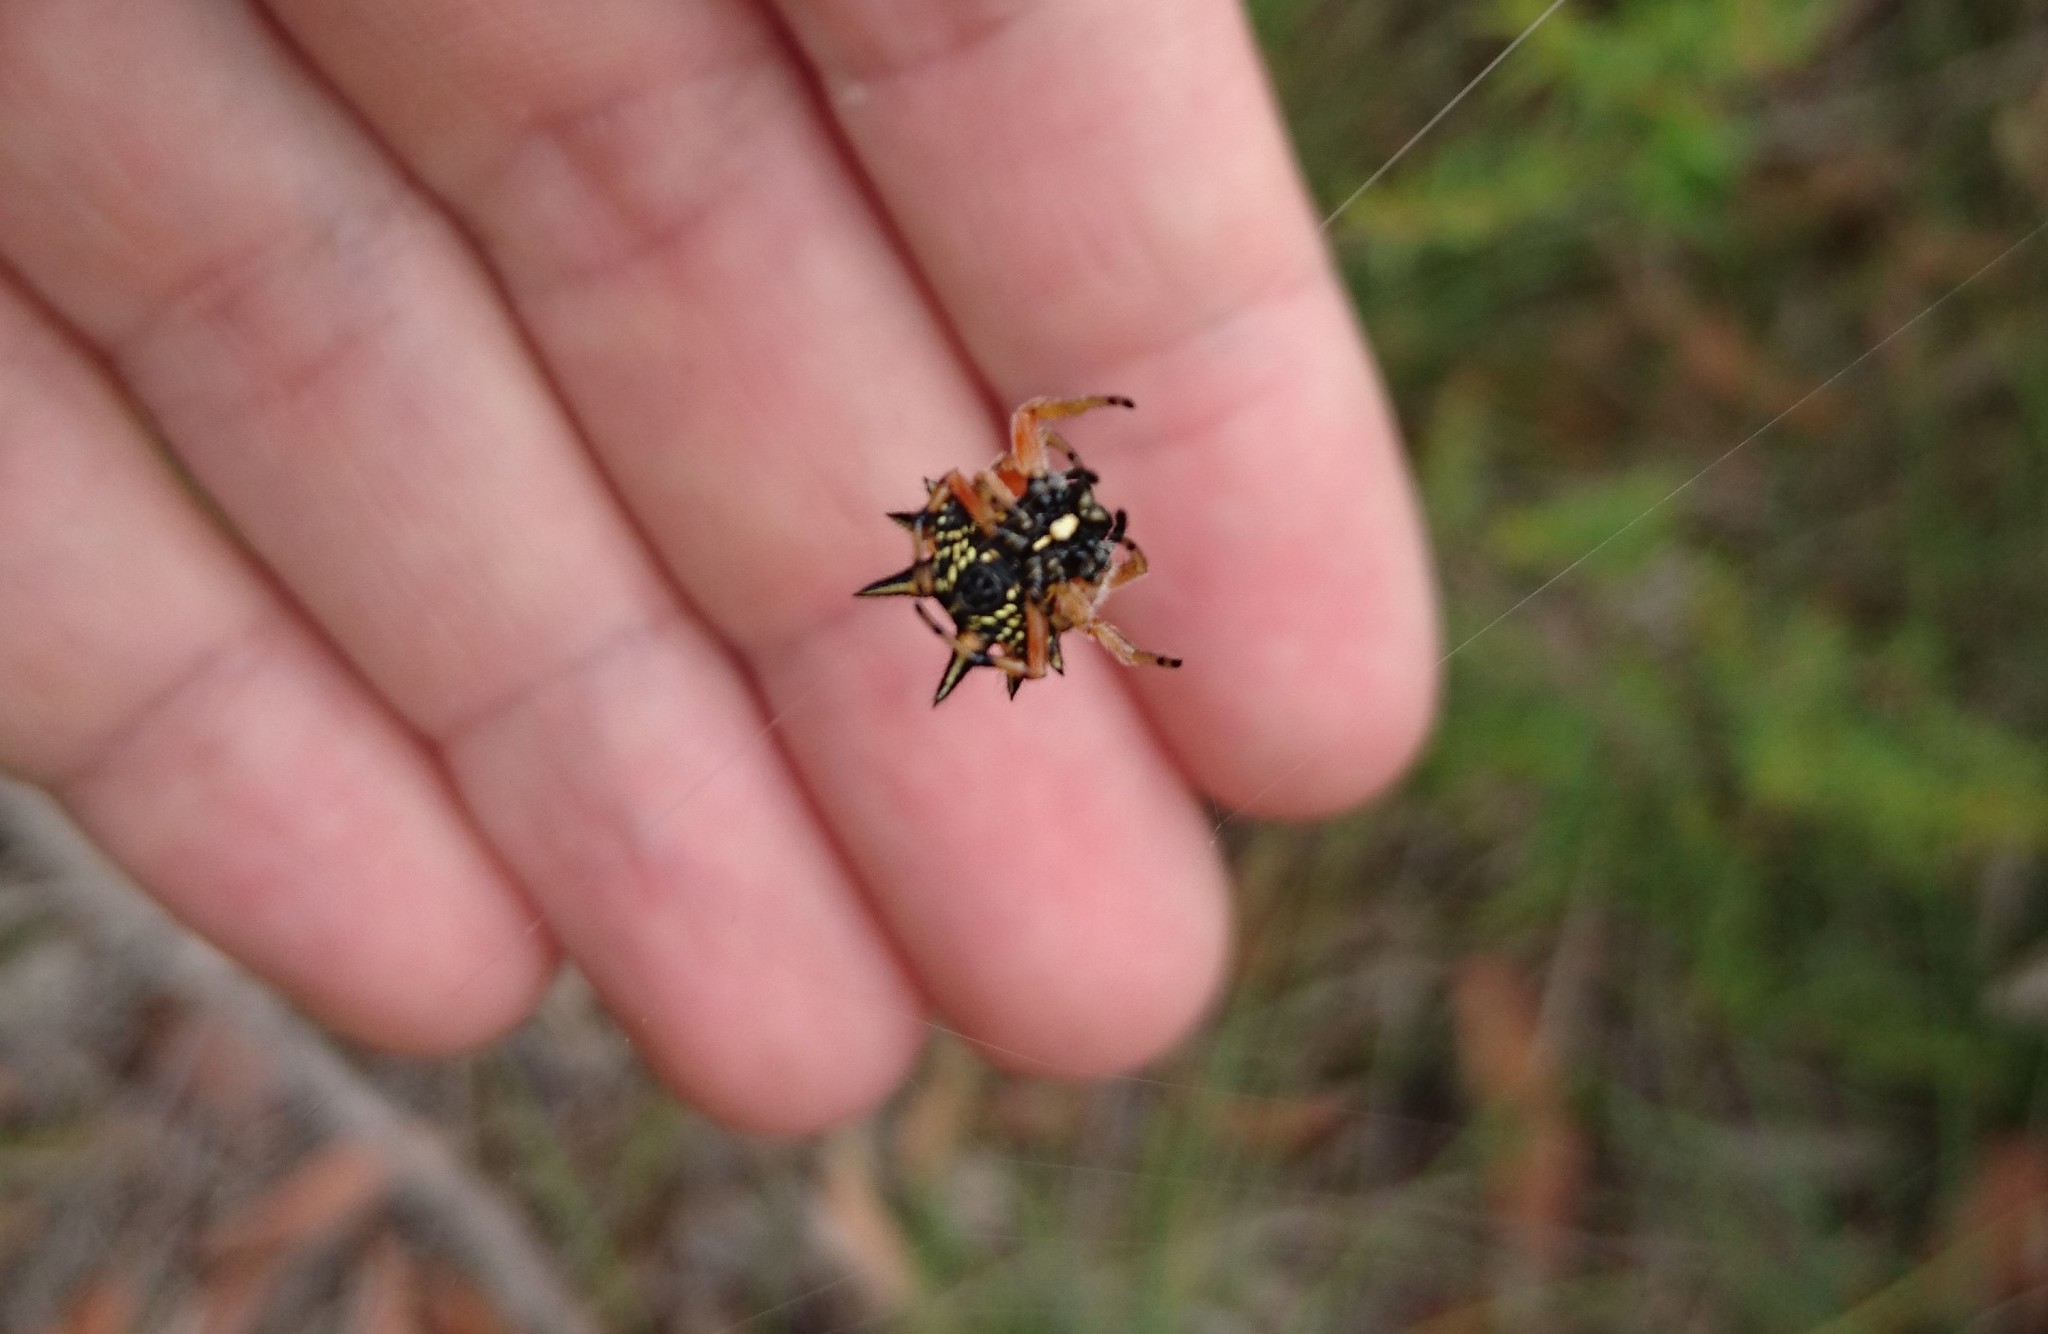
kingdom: Animalia
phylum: Arthropoda
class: Arachnida
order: Araneae
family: Araneidae
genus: Austracantha
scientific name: Austracantha minax
